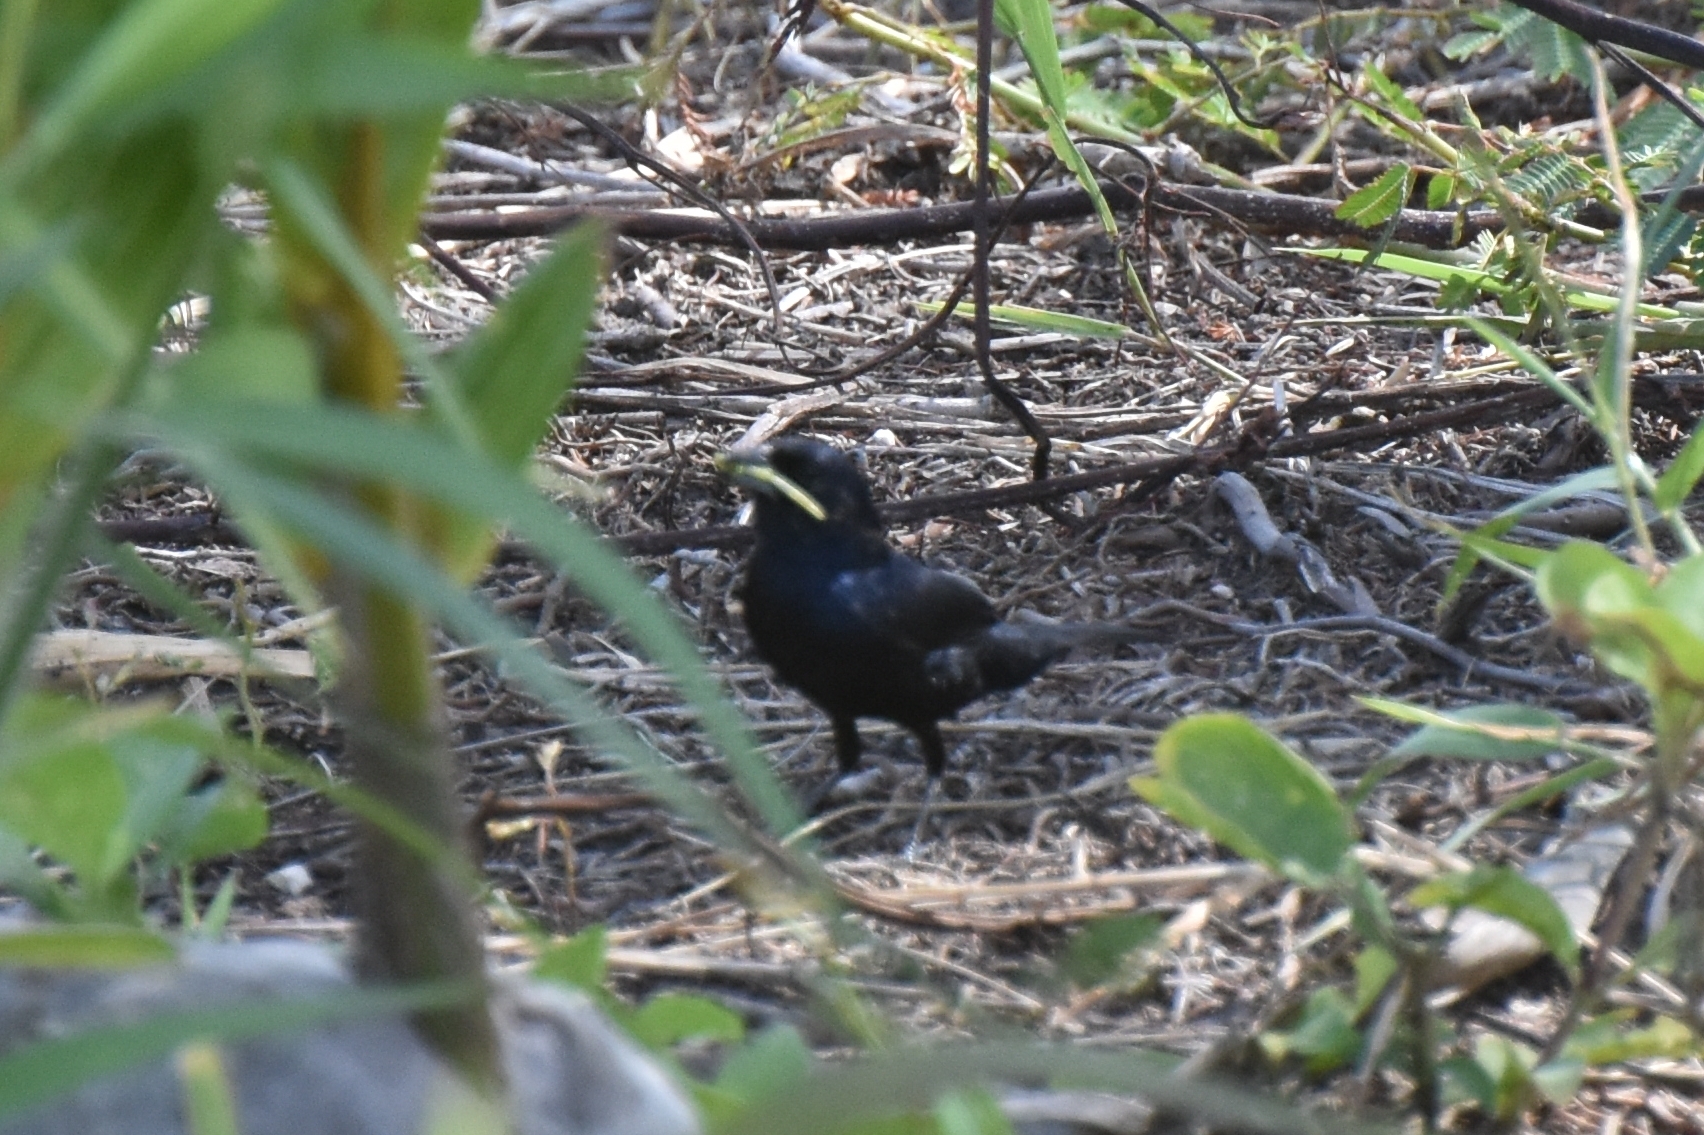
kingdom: Animalia
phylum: Chordata
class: Aves
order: Passeriformes
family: Thraupidae
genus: Volatinia
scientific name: Volatinia jacarina
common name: Blue-black grassquit
